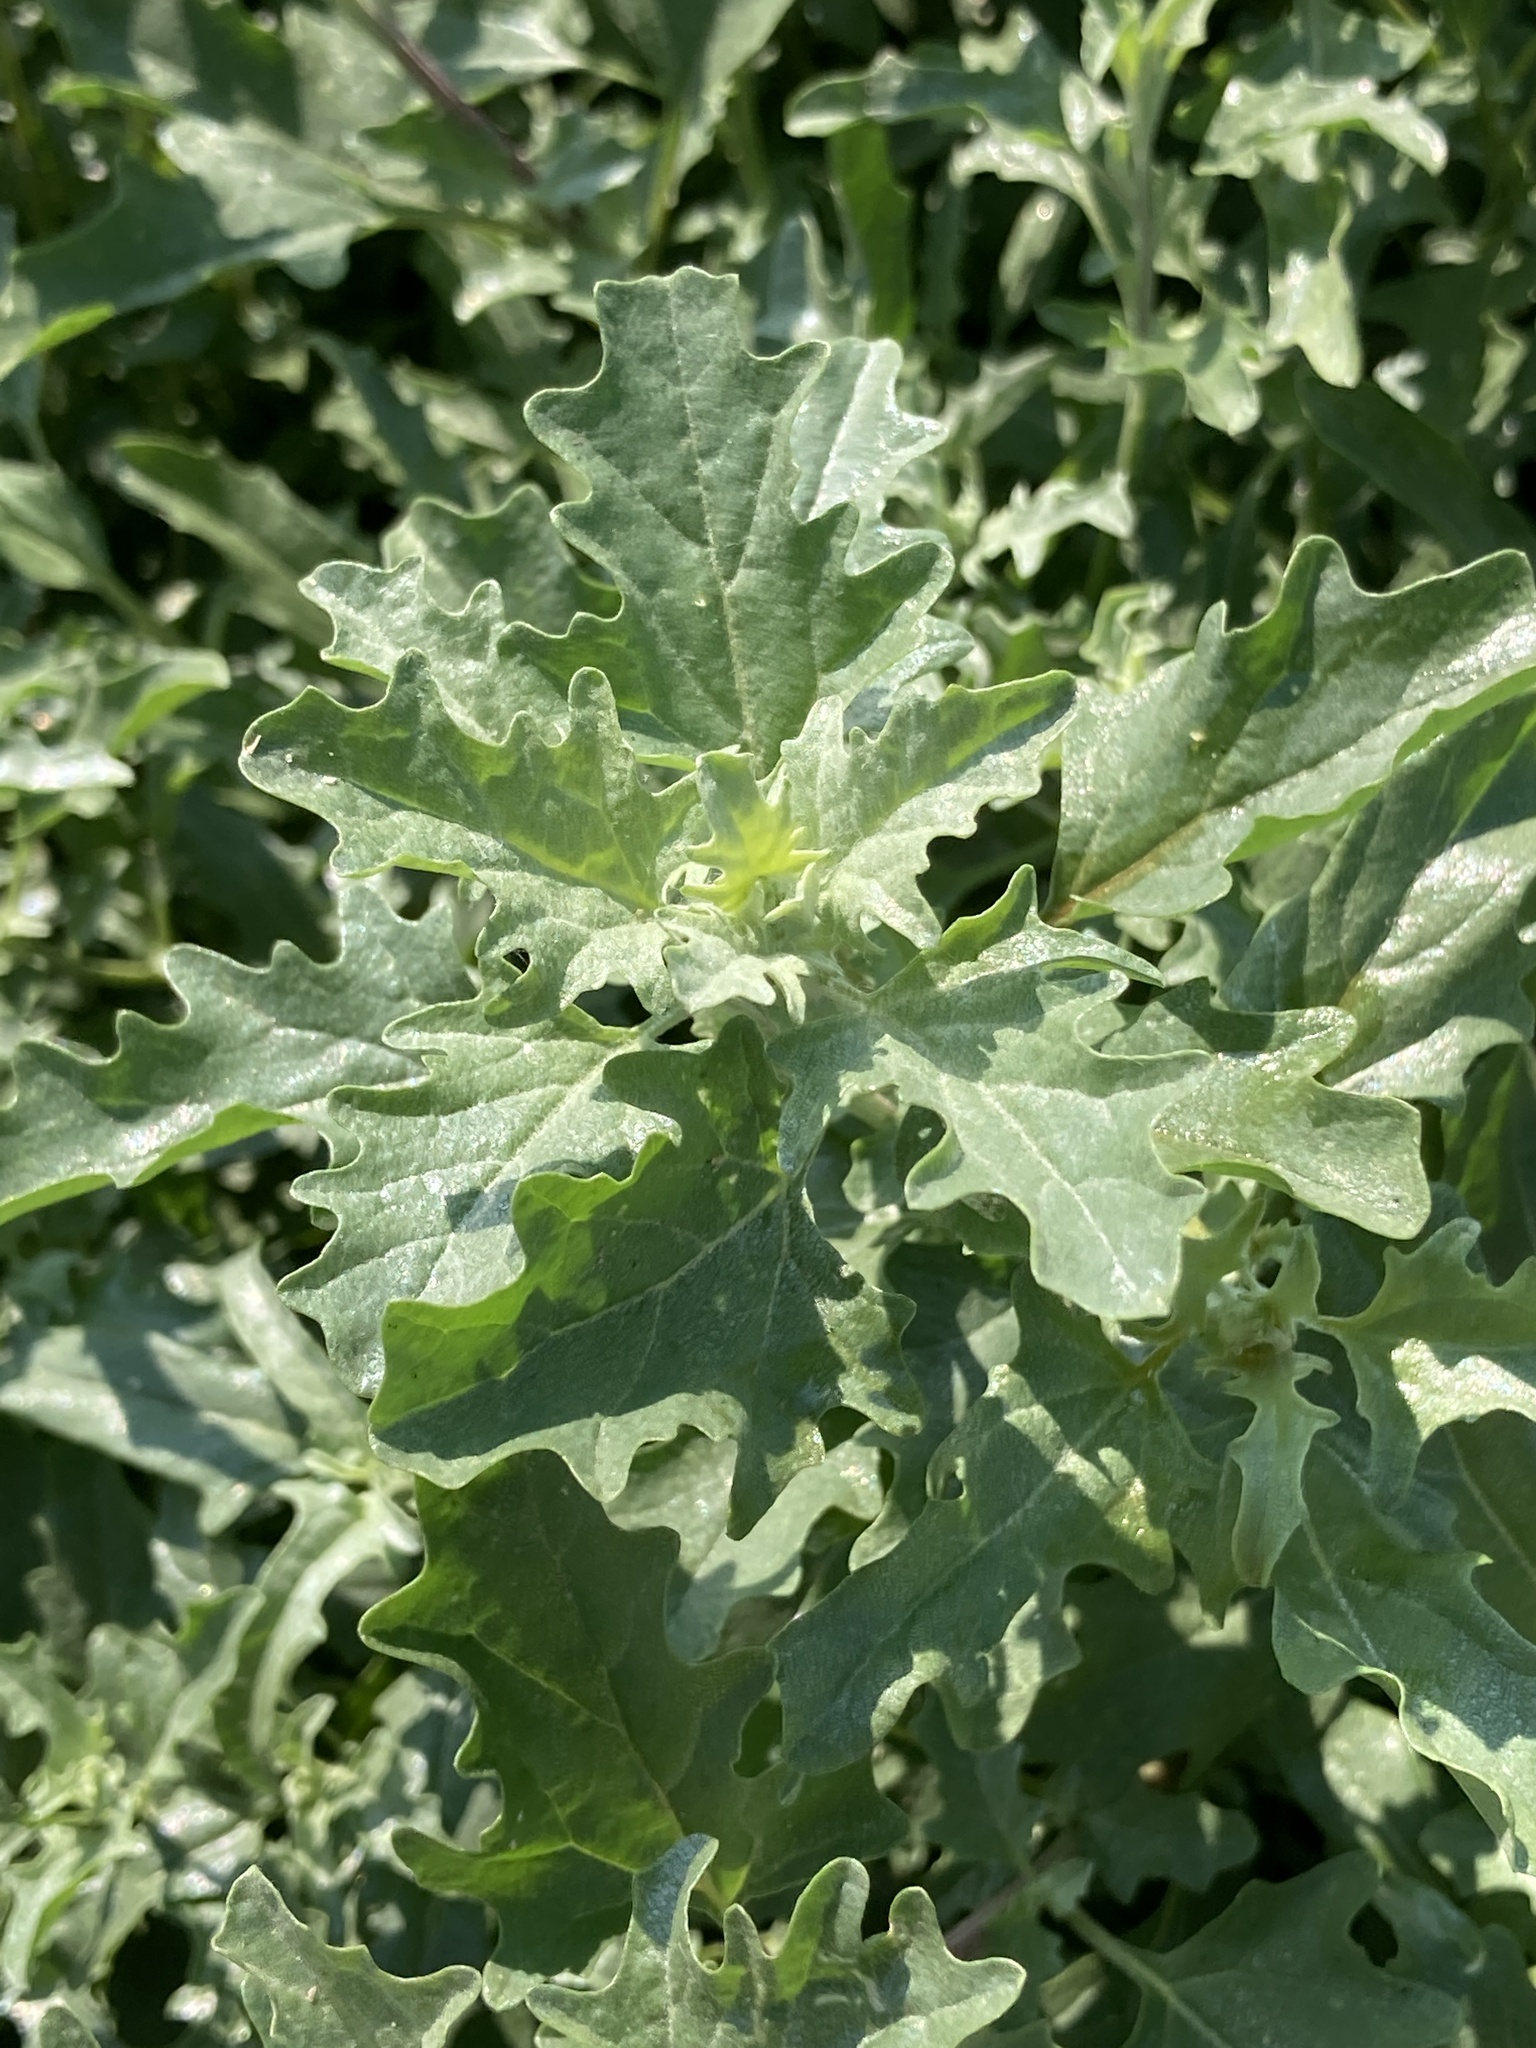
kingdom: Plantae
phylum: Tracheophyta
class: Magnoliopsida
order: Caryophyllales
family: Amaranthaceae
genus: Atriplex
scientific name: Atriplex tatarica
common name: Tatarian orache
